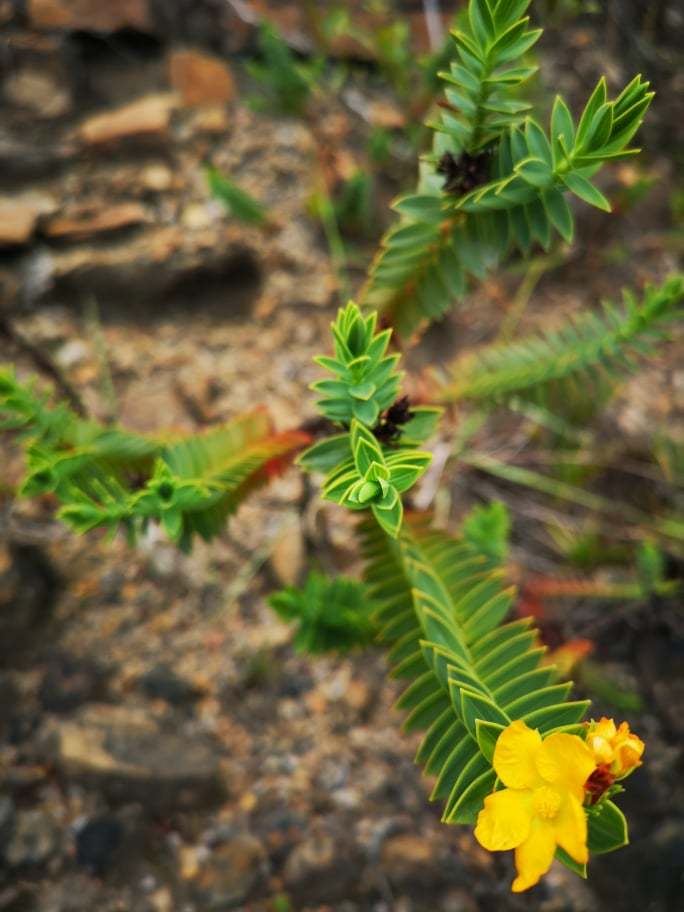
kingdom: Plantae
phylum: Tracheophyta
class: Magnoliopsida
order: Malpighiales
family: Hypericaceae
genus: Hypericum
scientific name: Hypericum mexicanum
